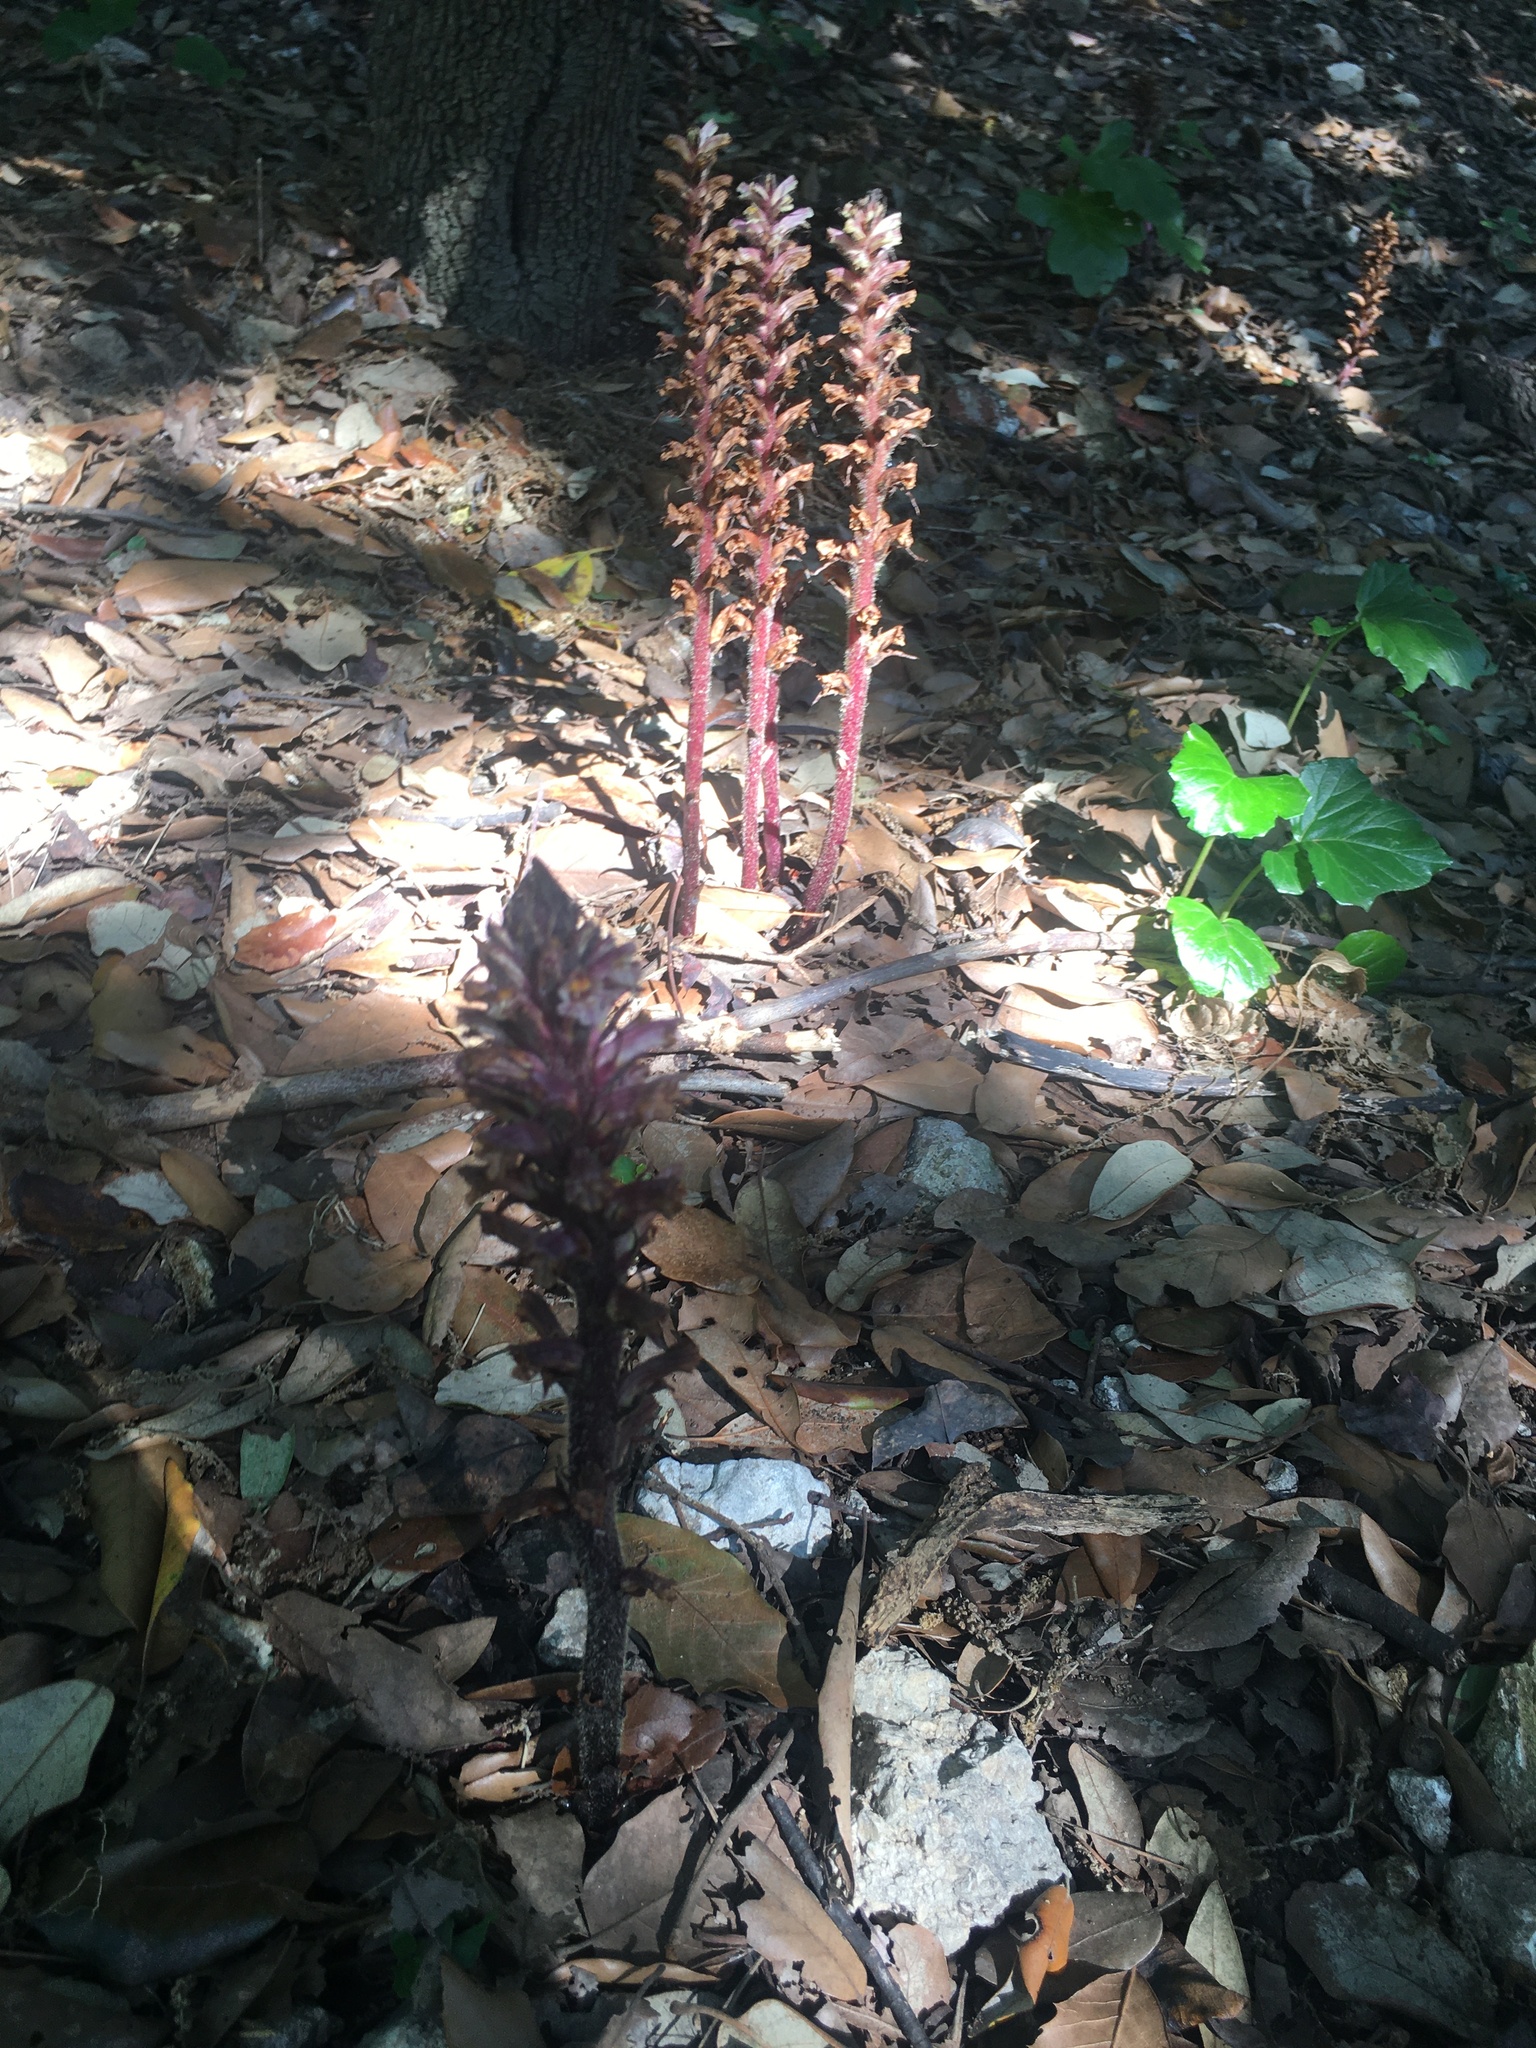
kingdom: Plantae
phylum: Tracheophyta
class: Magnoliopsida
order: Lamiales
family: Orobanchaceae
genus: Orobanche
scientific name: Orobanche hederae
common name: Ivy broomrape
